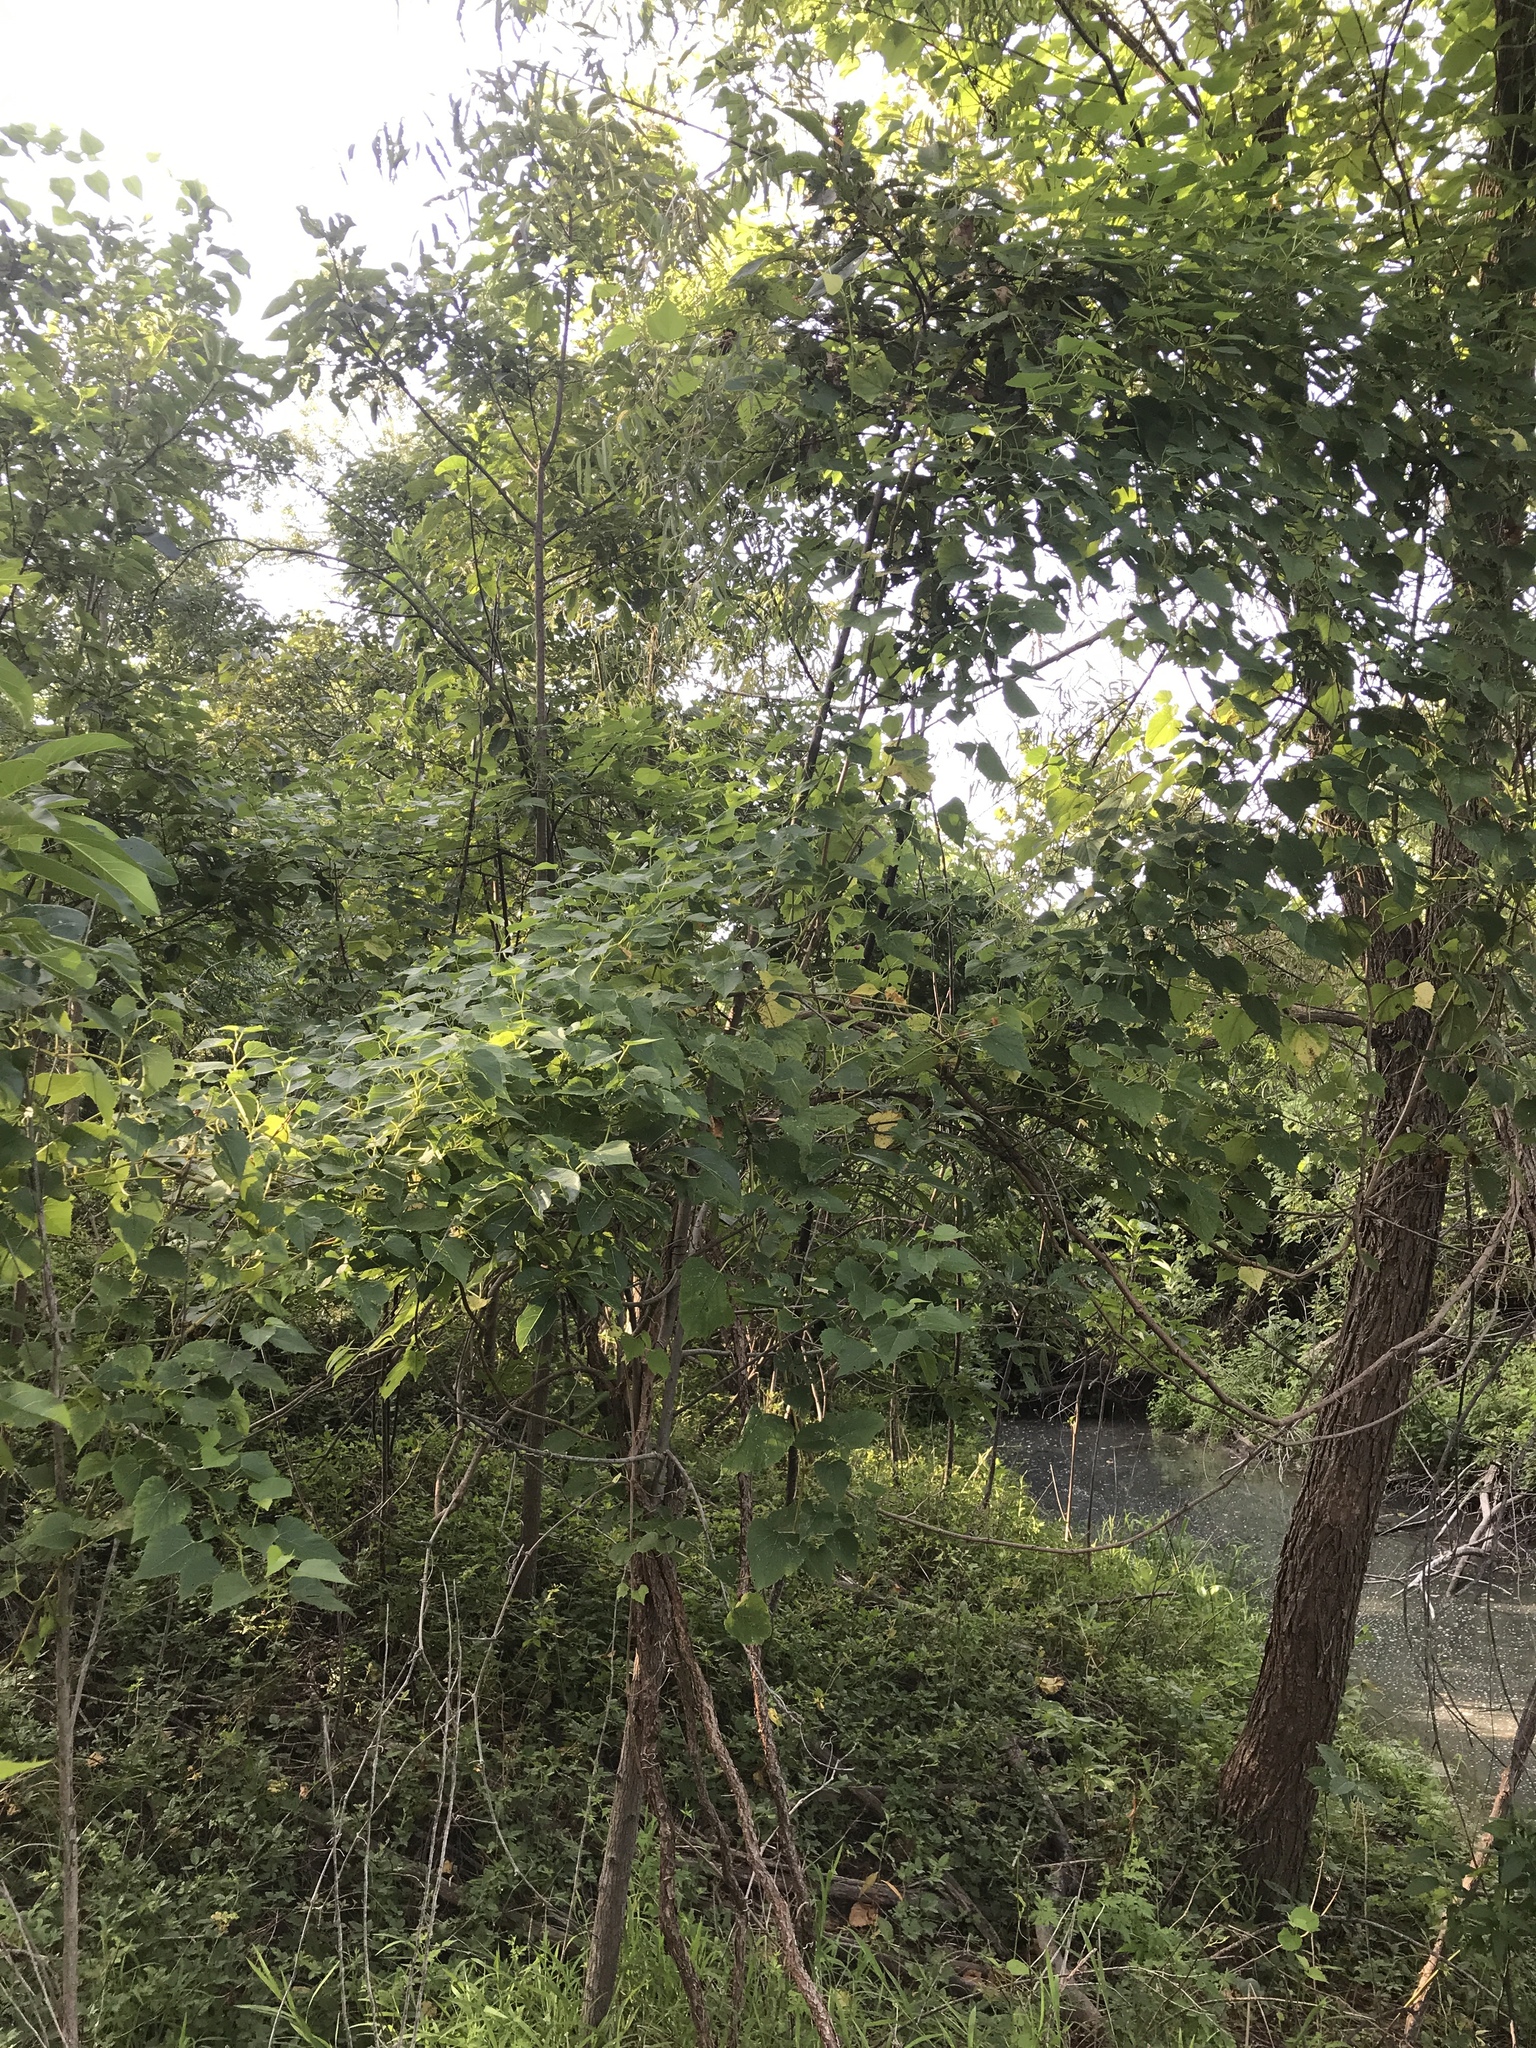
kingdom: Plantae
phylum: Tracheophyta
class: Magnoliopsida
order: Vitales
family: Vitaceae
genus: Ampelopsis
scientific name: Ampelopsis cordata
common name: Heart-leaf ampelopsis
